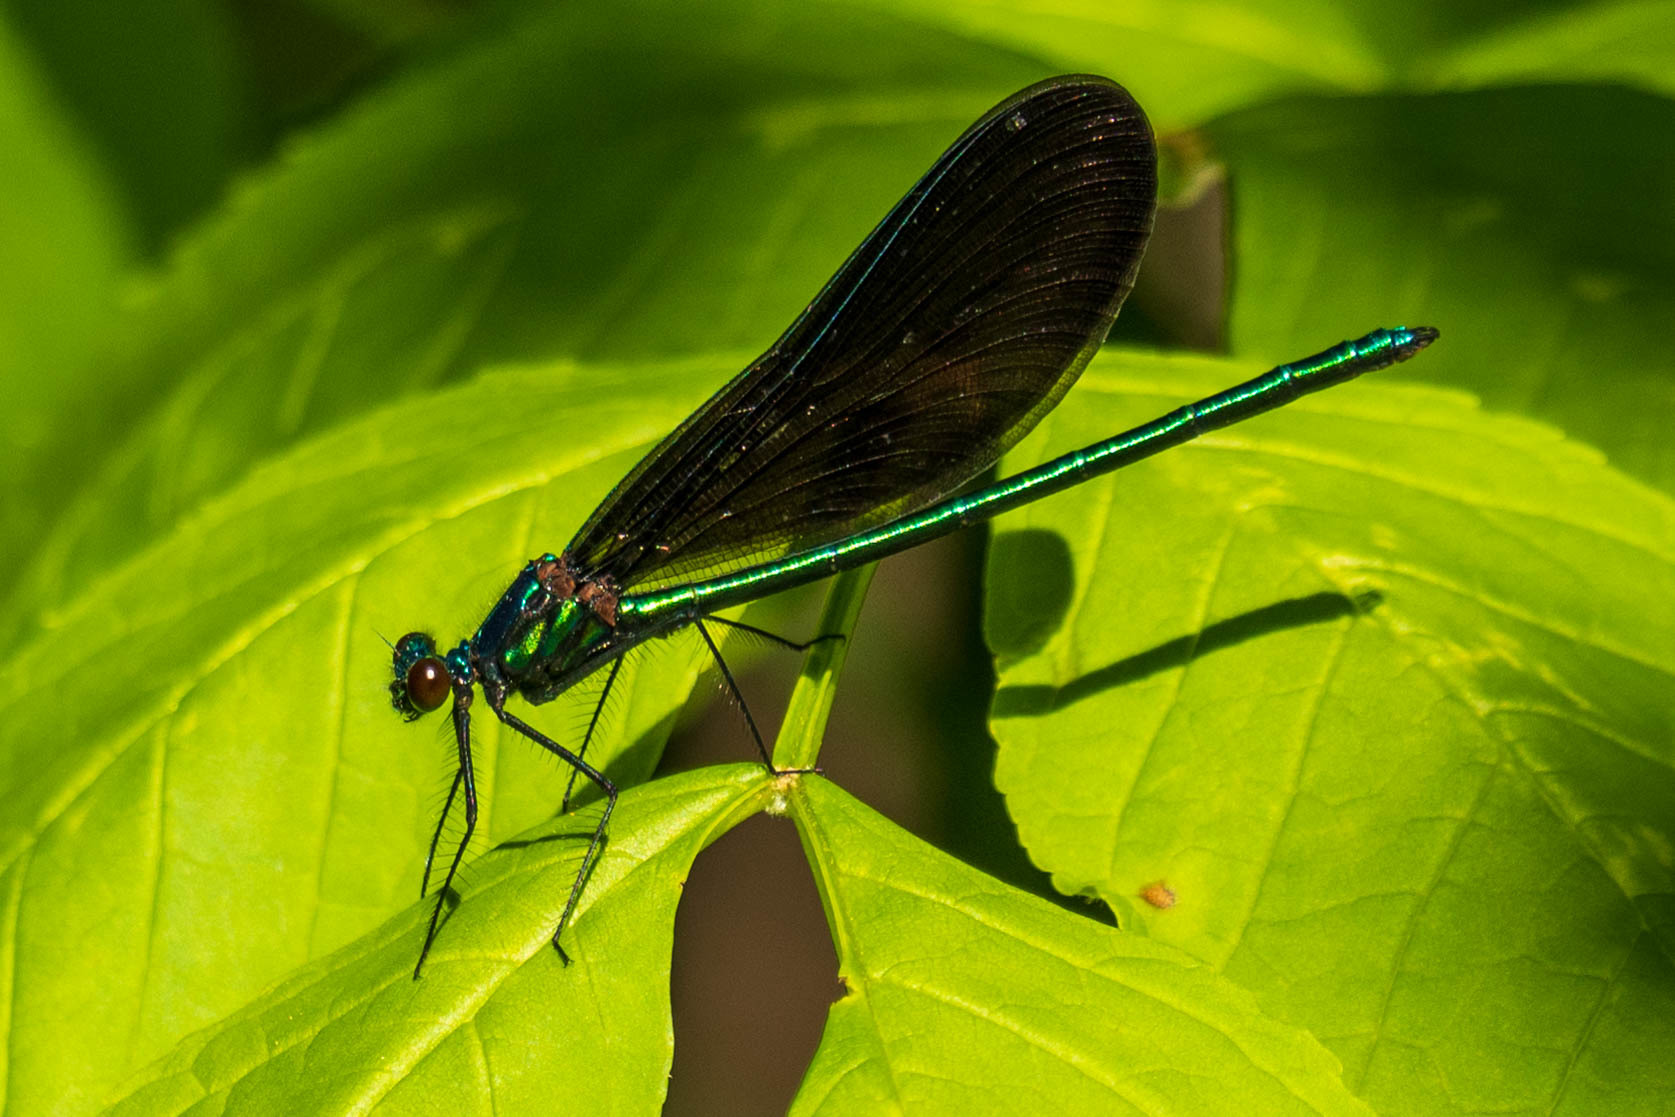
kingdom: Animalia
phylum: Arthropoda
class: Insecta
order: Odonata
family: Calopterygidae
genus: Calopteryx
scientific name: Calopteryx maculata
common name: Ebony jewelwing
